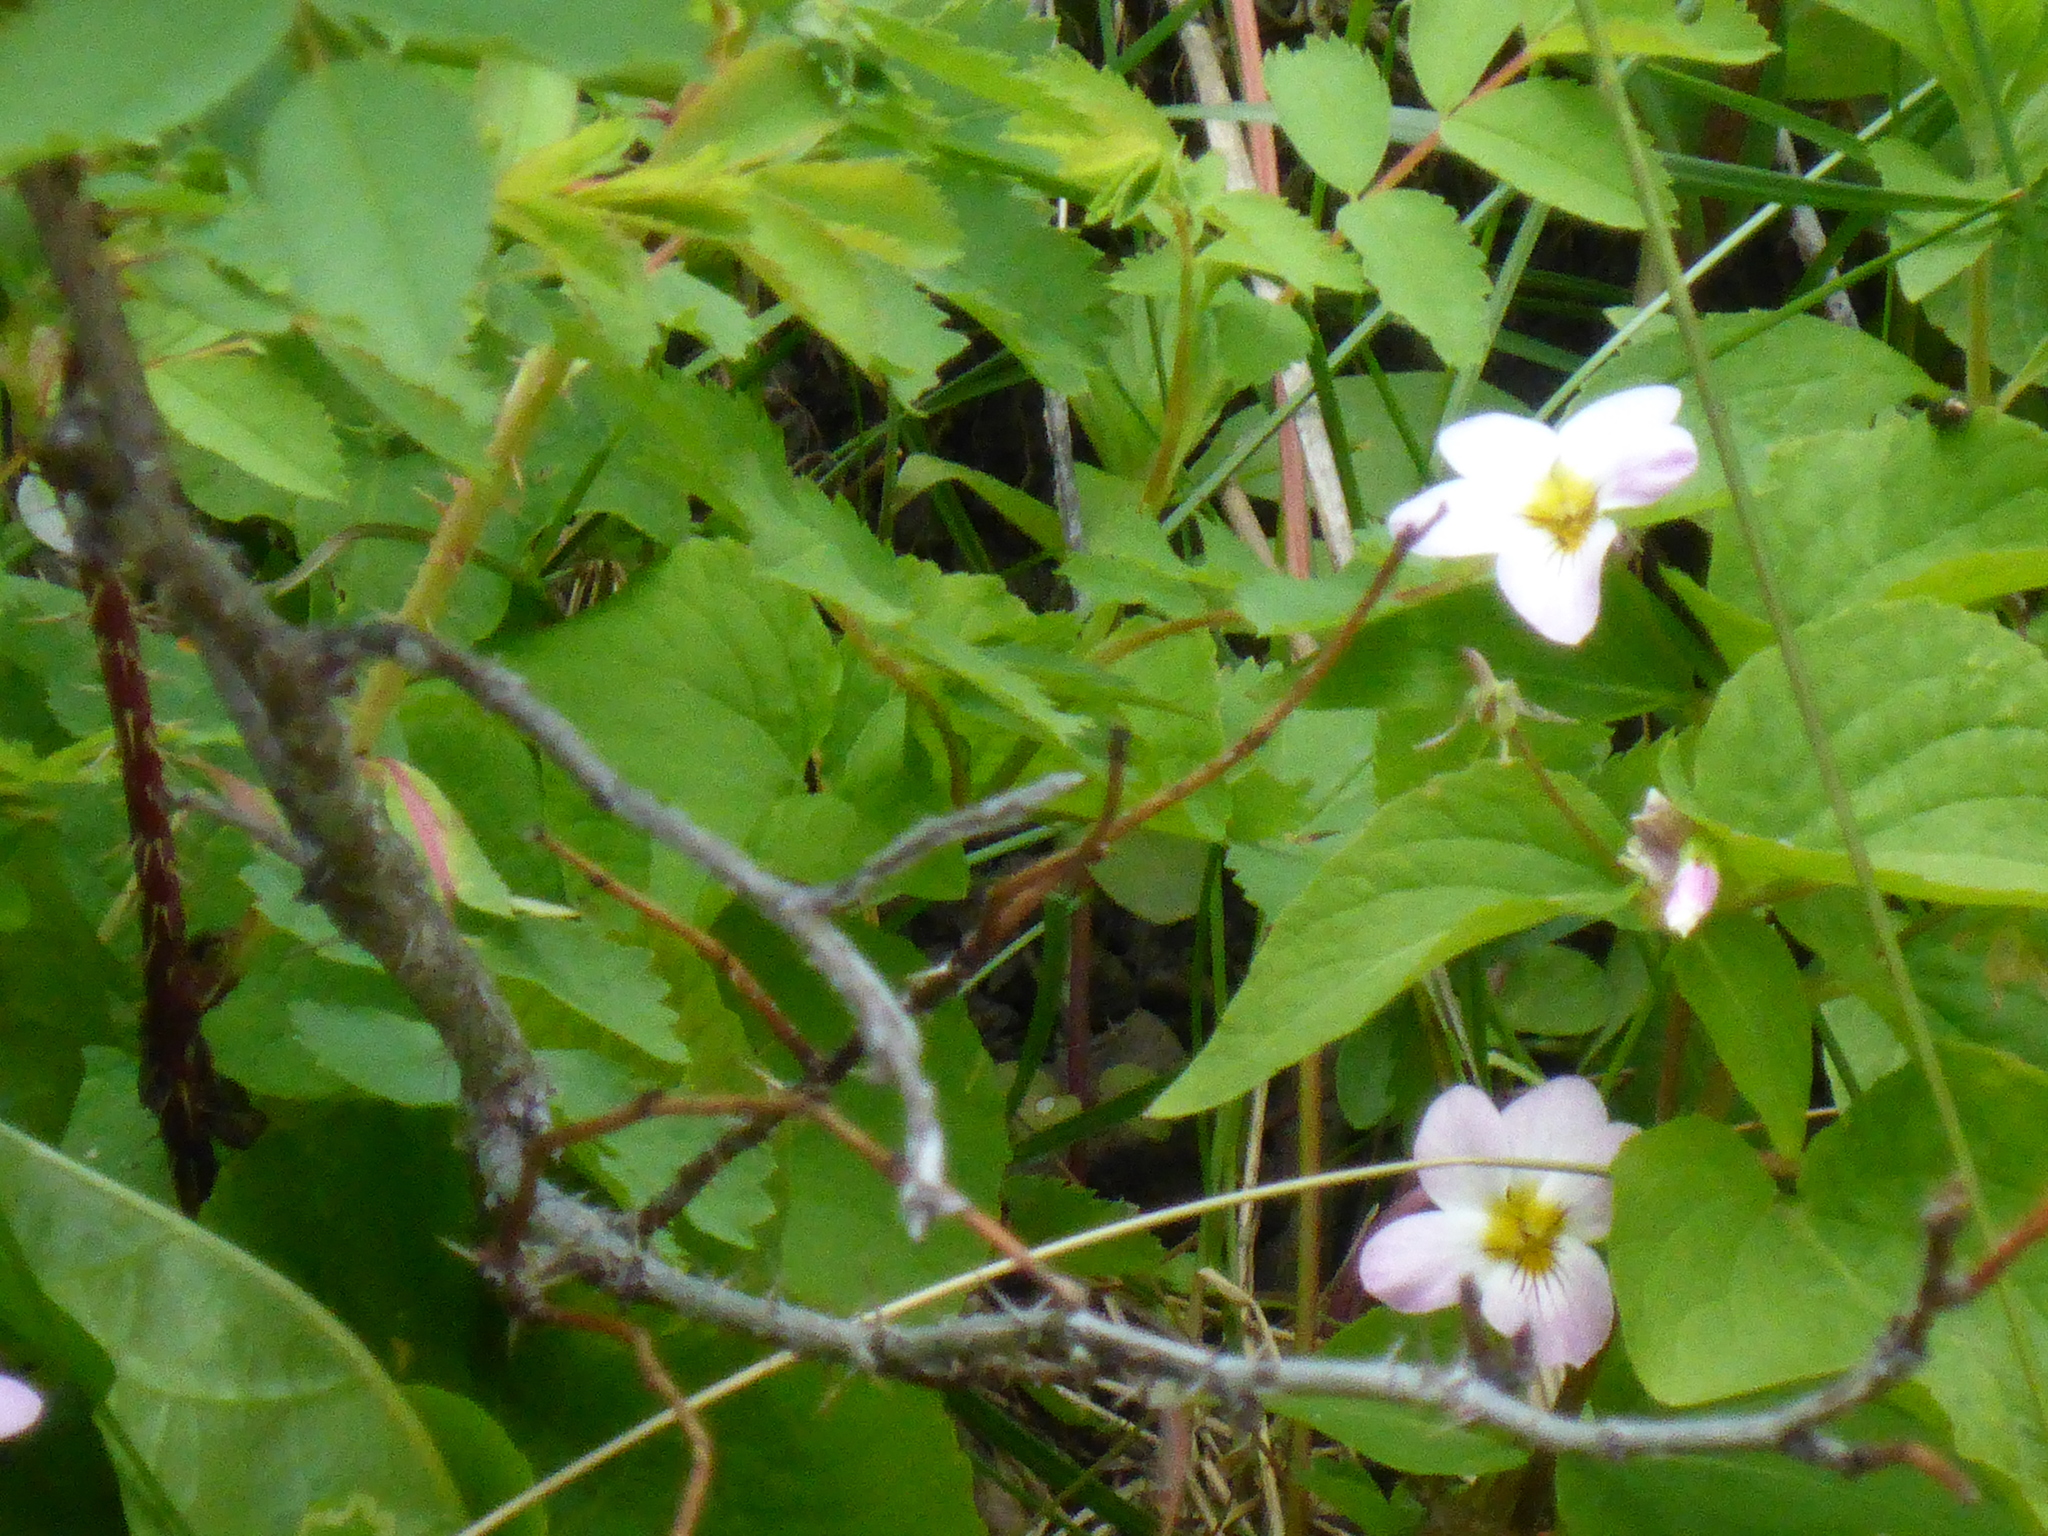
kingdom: Plantae
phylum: Tracheophyta
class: Magnoliopsida
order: Malpighiales
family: Violaceae
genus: Viola
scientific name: Viola canadensis
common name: Canada violet
